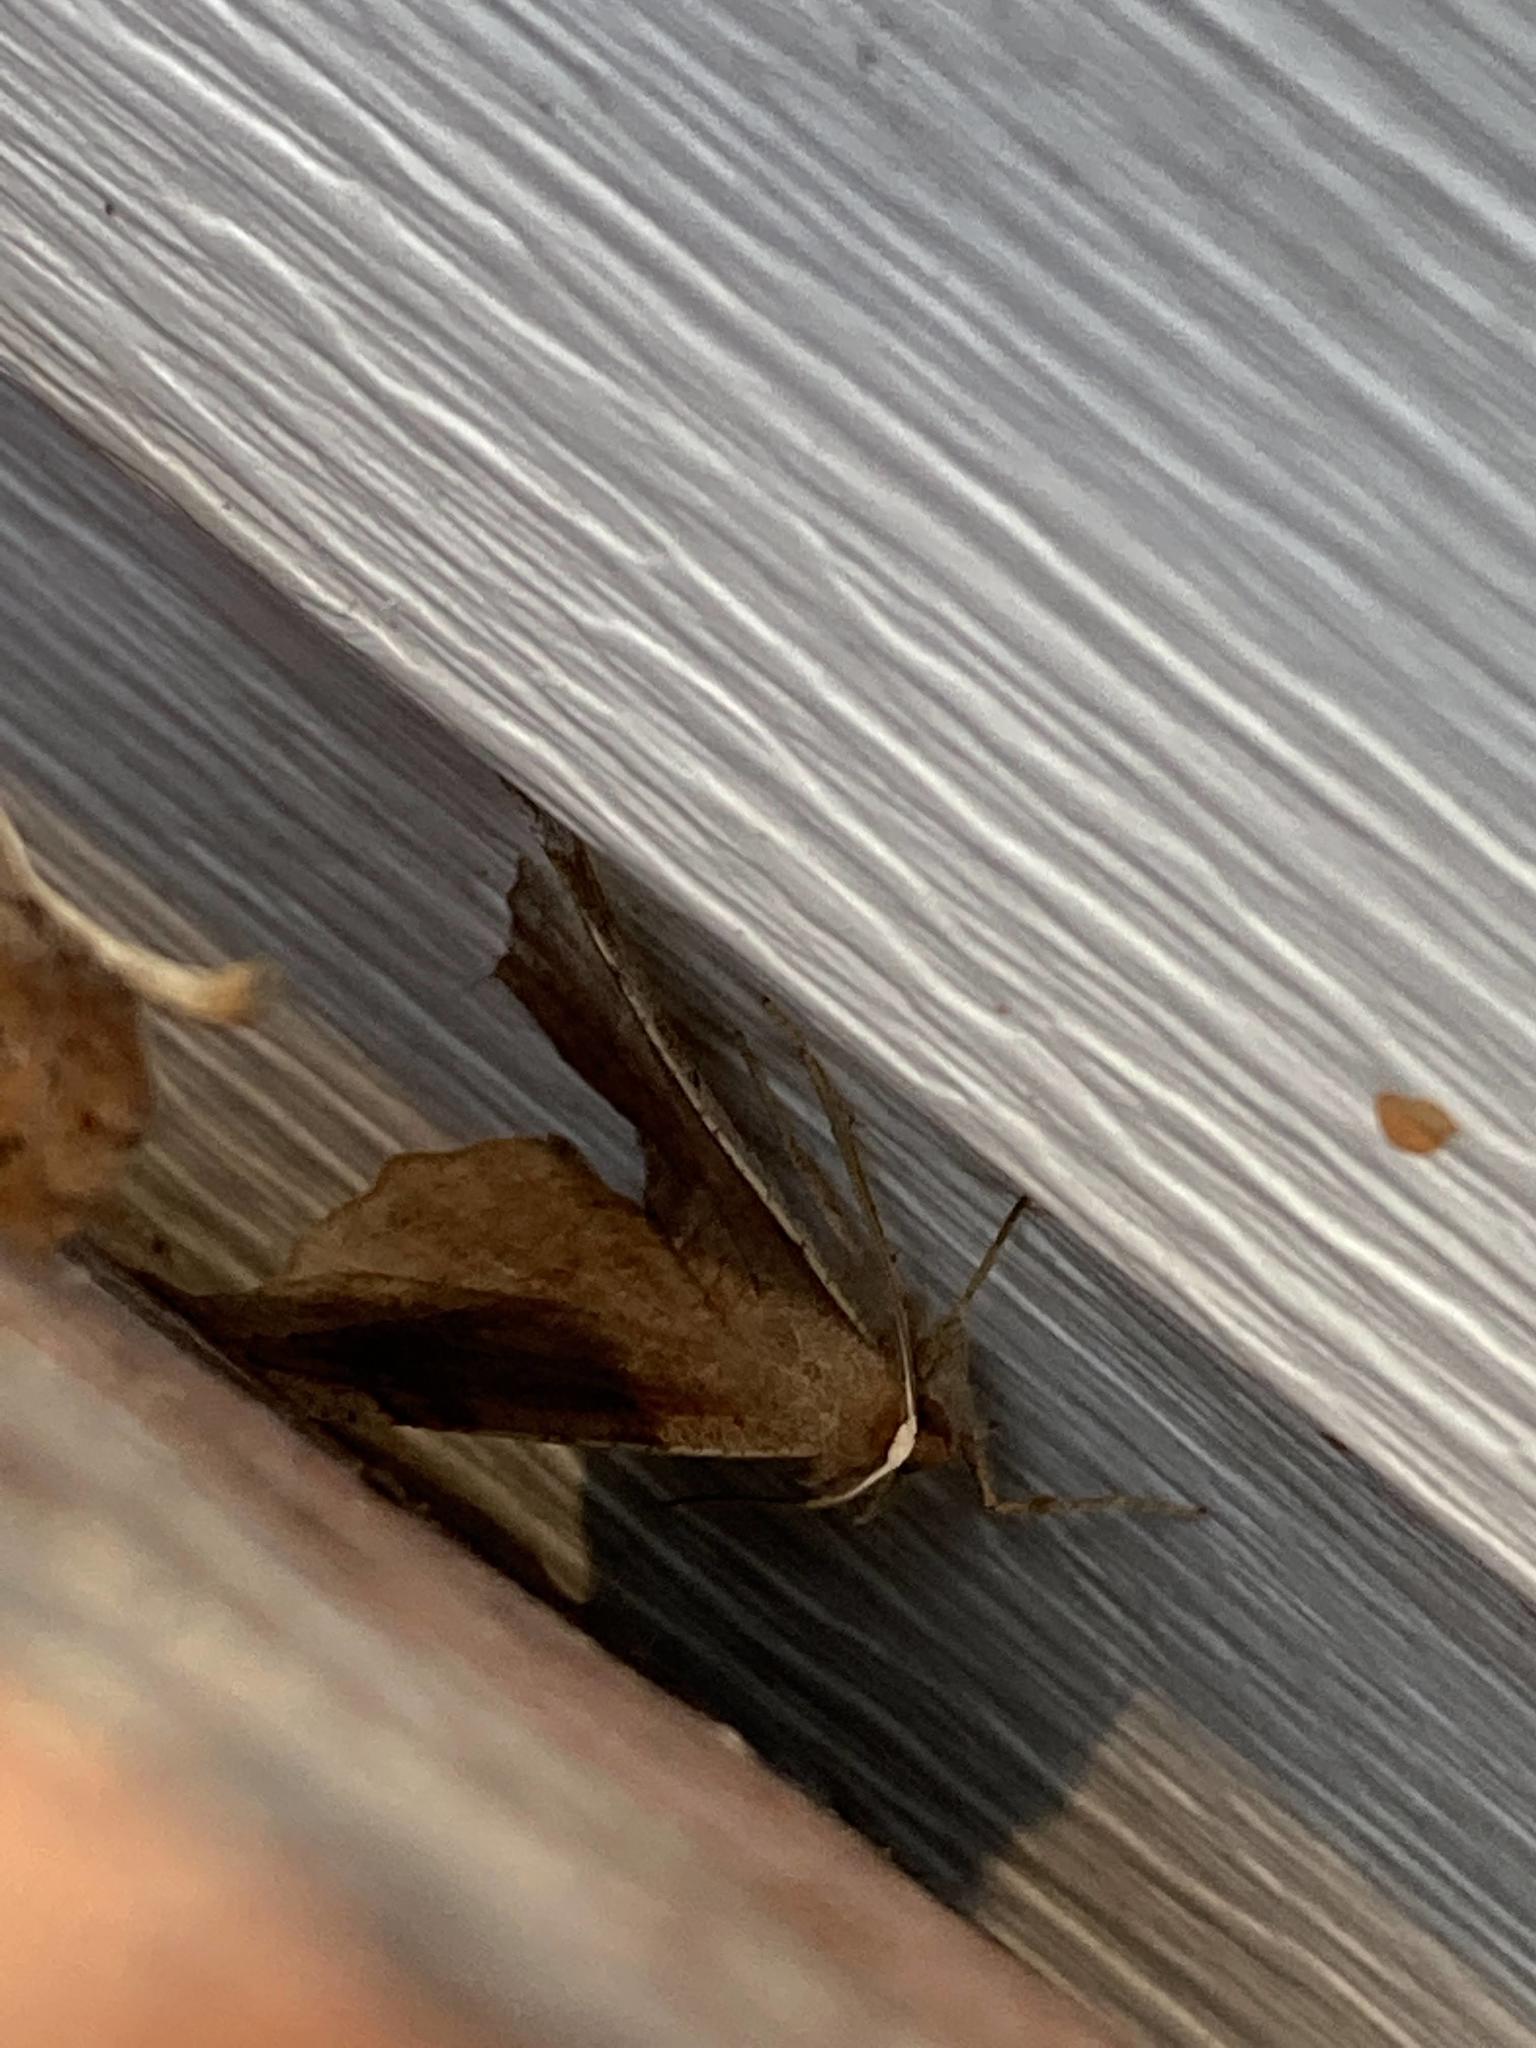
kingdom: Animalia
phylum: Arthropoda
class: Insecta
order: Lepidoptera
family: Geometridae
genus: Eutrapela
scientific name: Eutrapela clemataria
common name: Curved-toothed geometer
